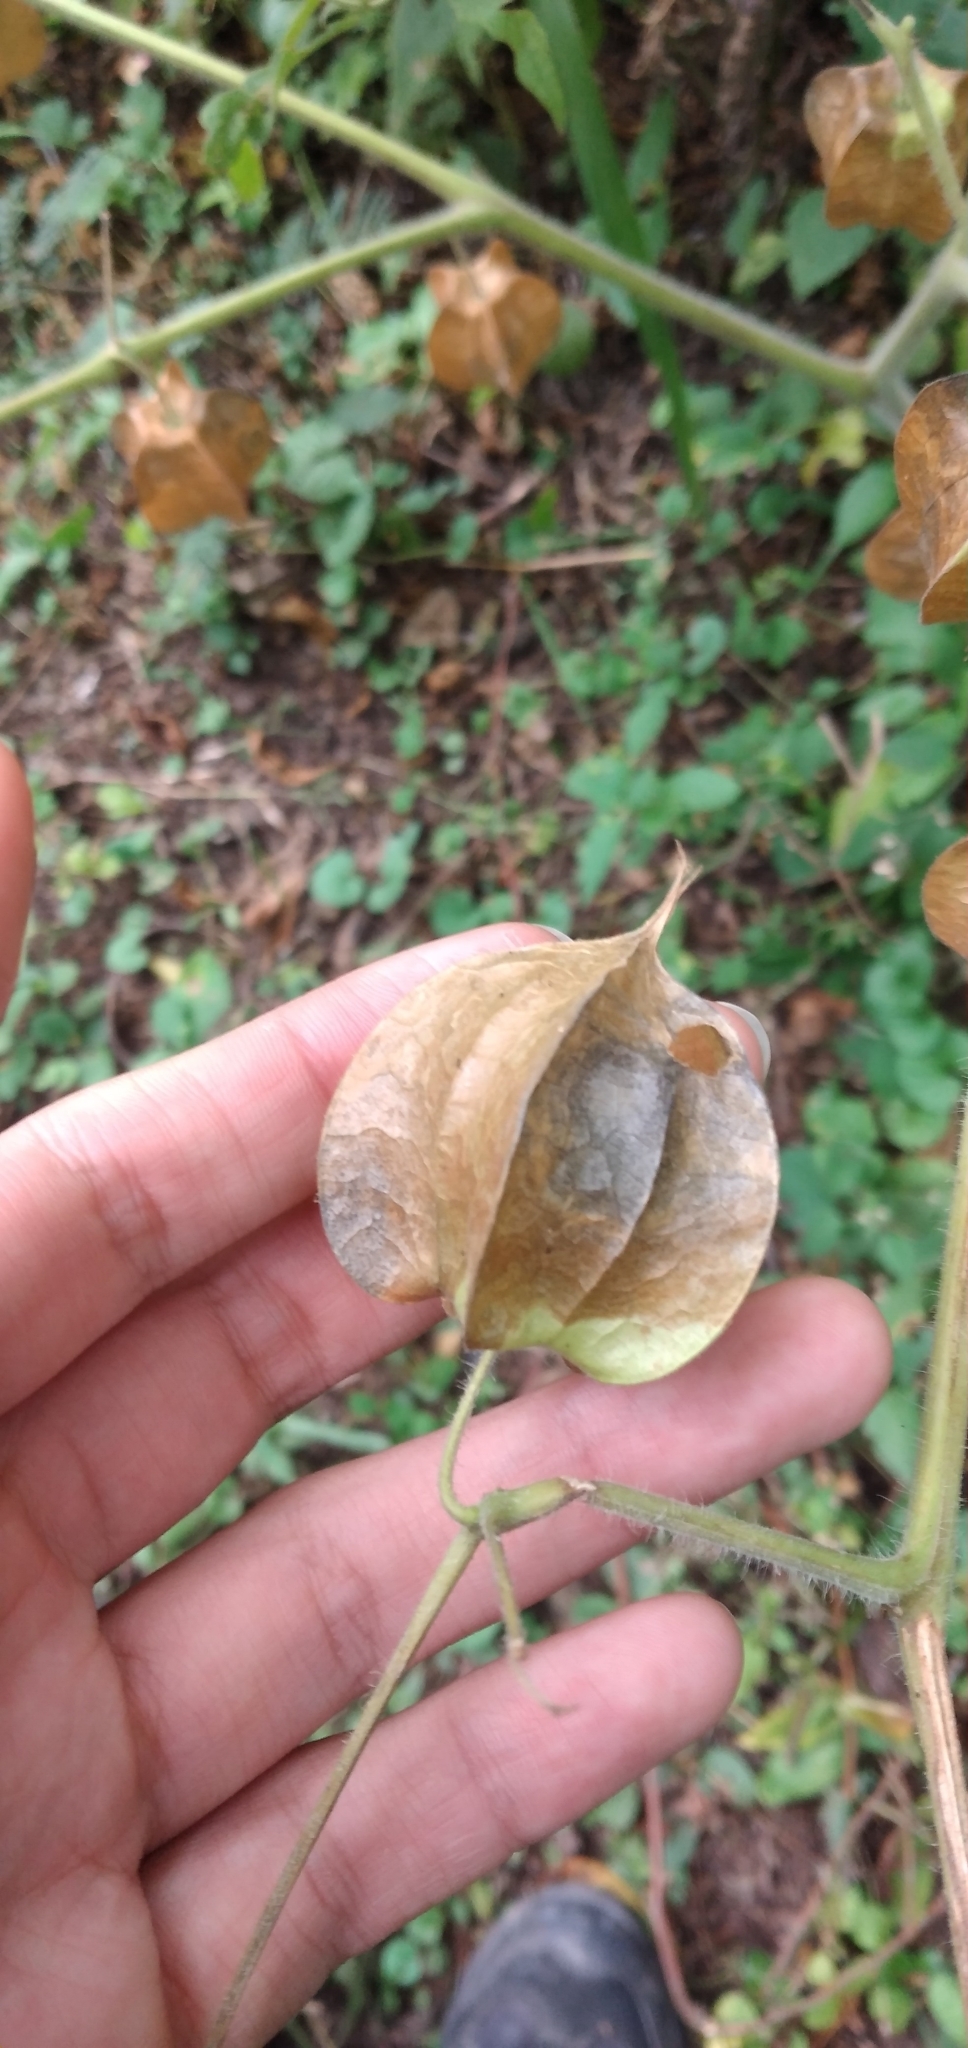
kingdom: Plantae
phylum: Tracheophyta
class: Magnoliopsida
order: Sapindales
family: Sapindaceae
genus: Cardiospermum
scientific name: Cardiospermum grandiflorum
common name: Balloon vine
